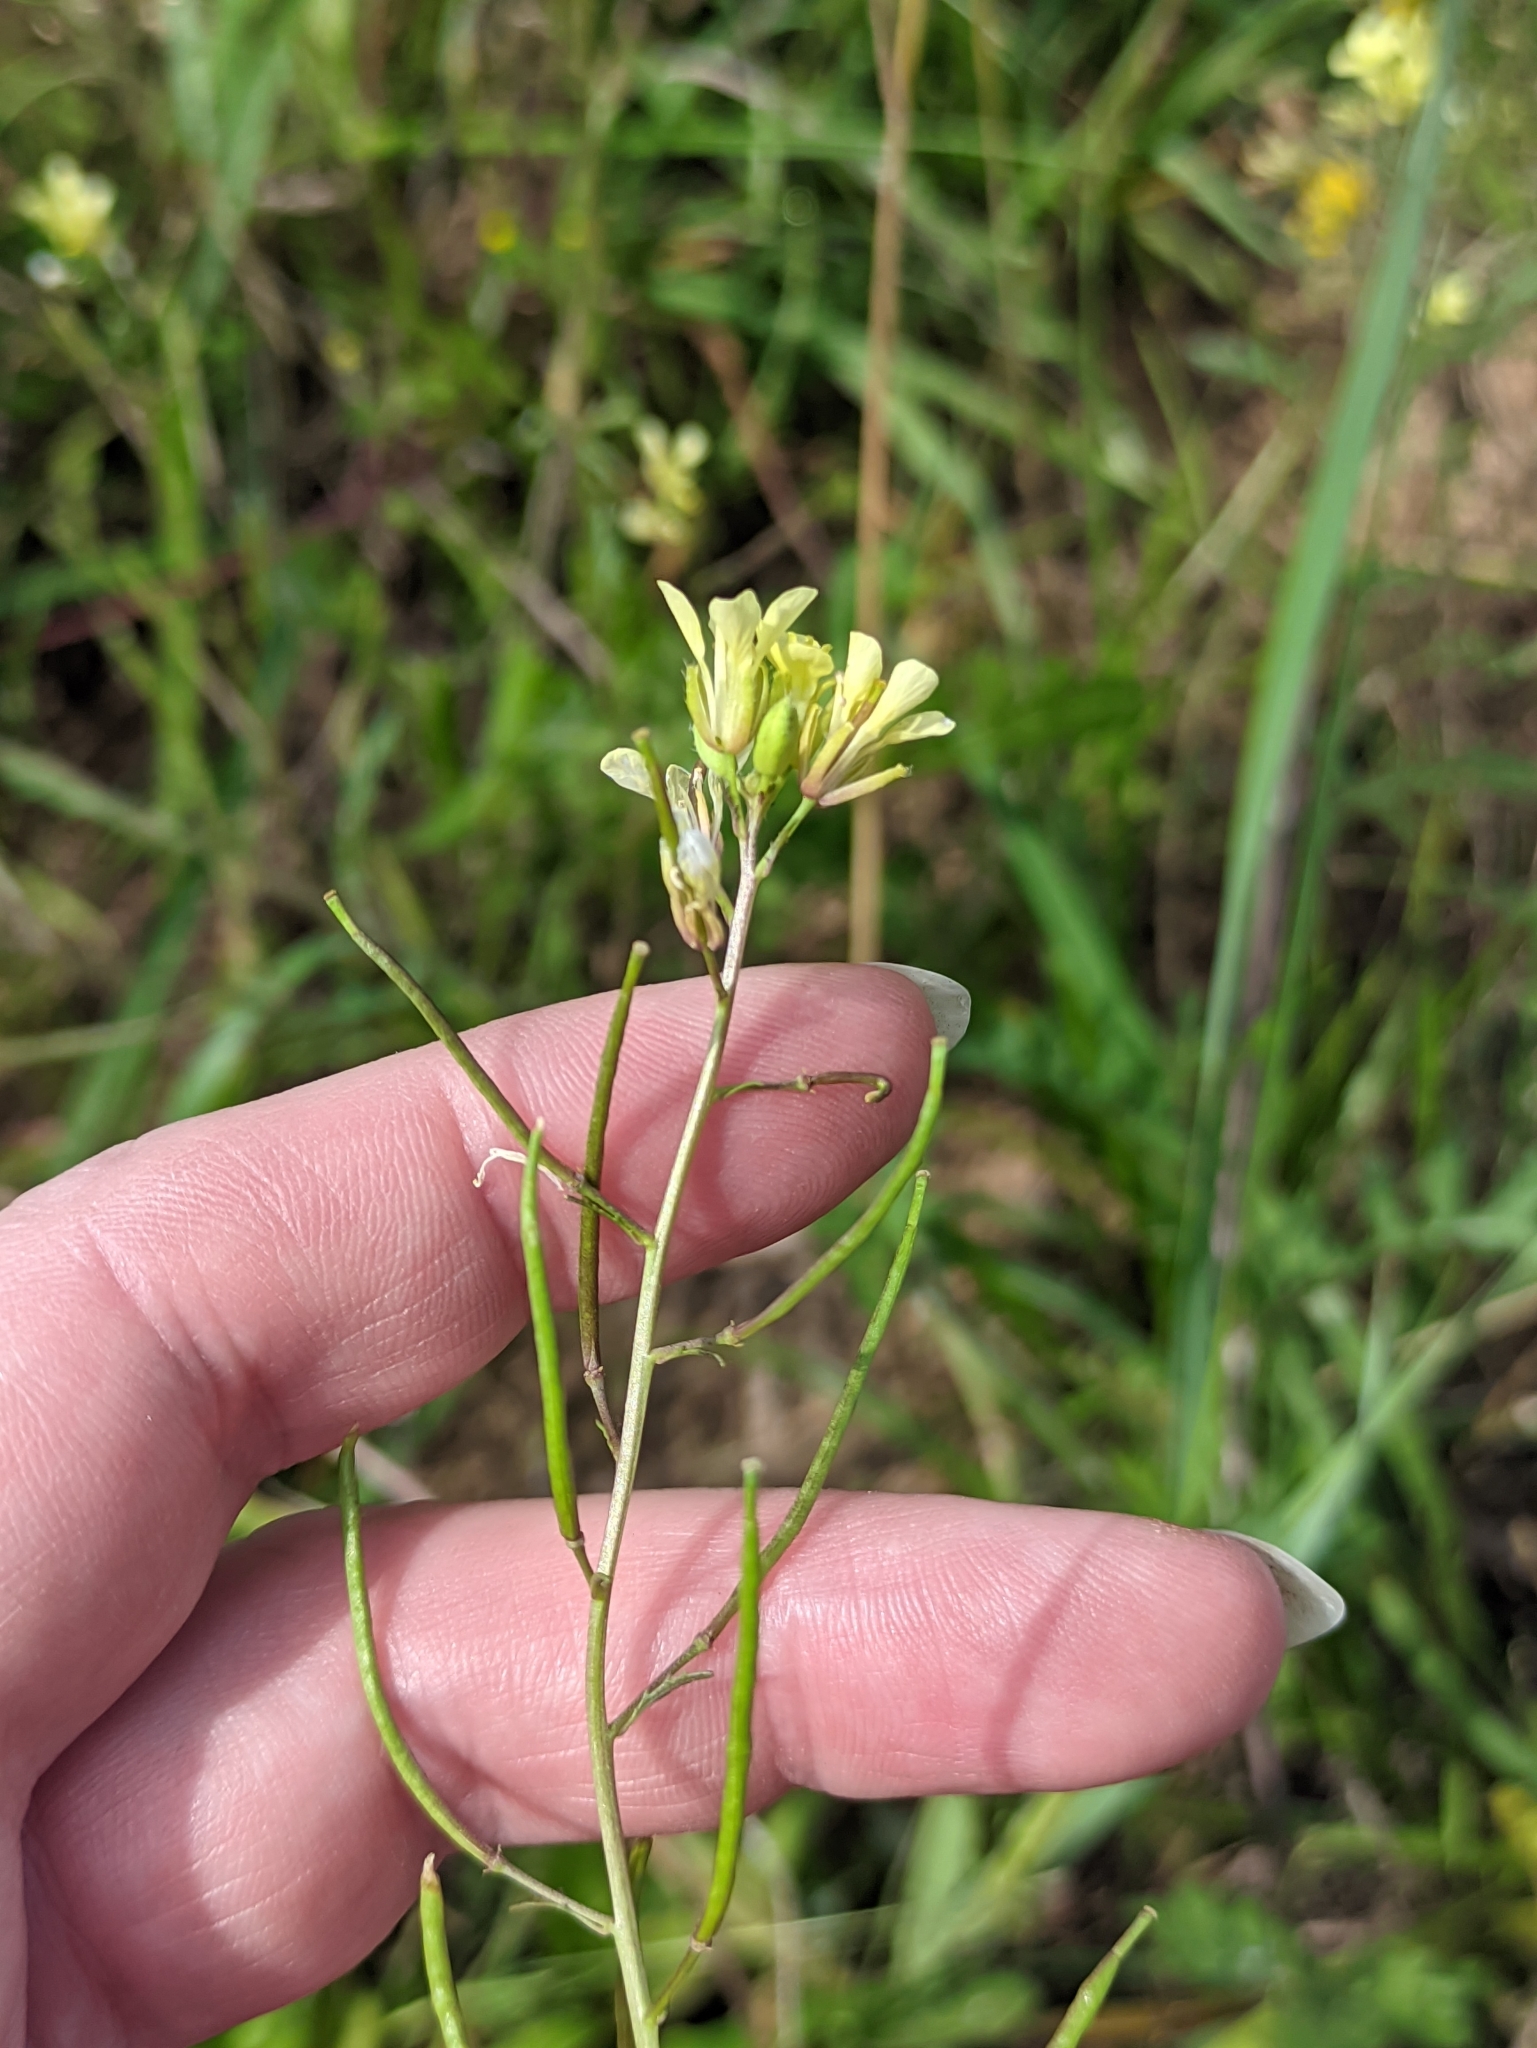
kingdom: Plantae
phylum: Tracheophyta
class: Magnoliopsida
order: Brassicales
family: Brassicaceae
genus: Erucastrum
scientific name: Erucastrum gallicum
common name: Hairy rocket
